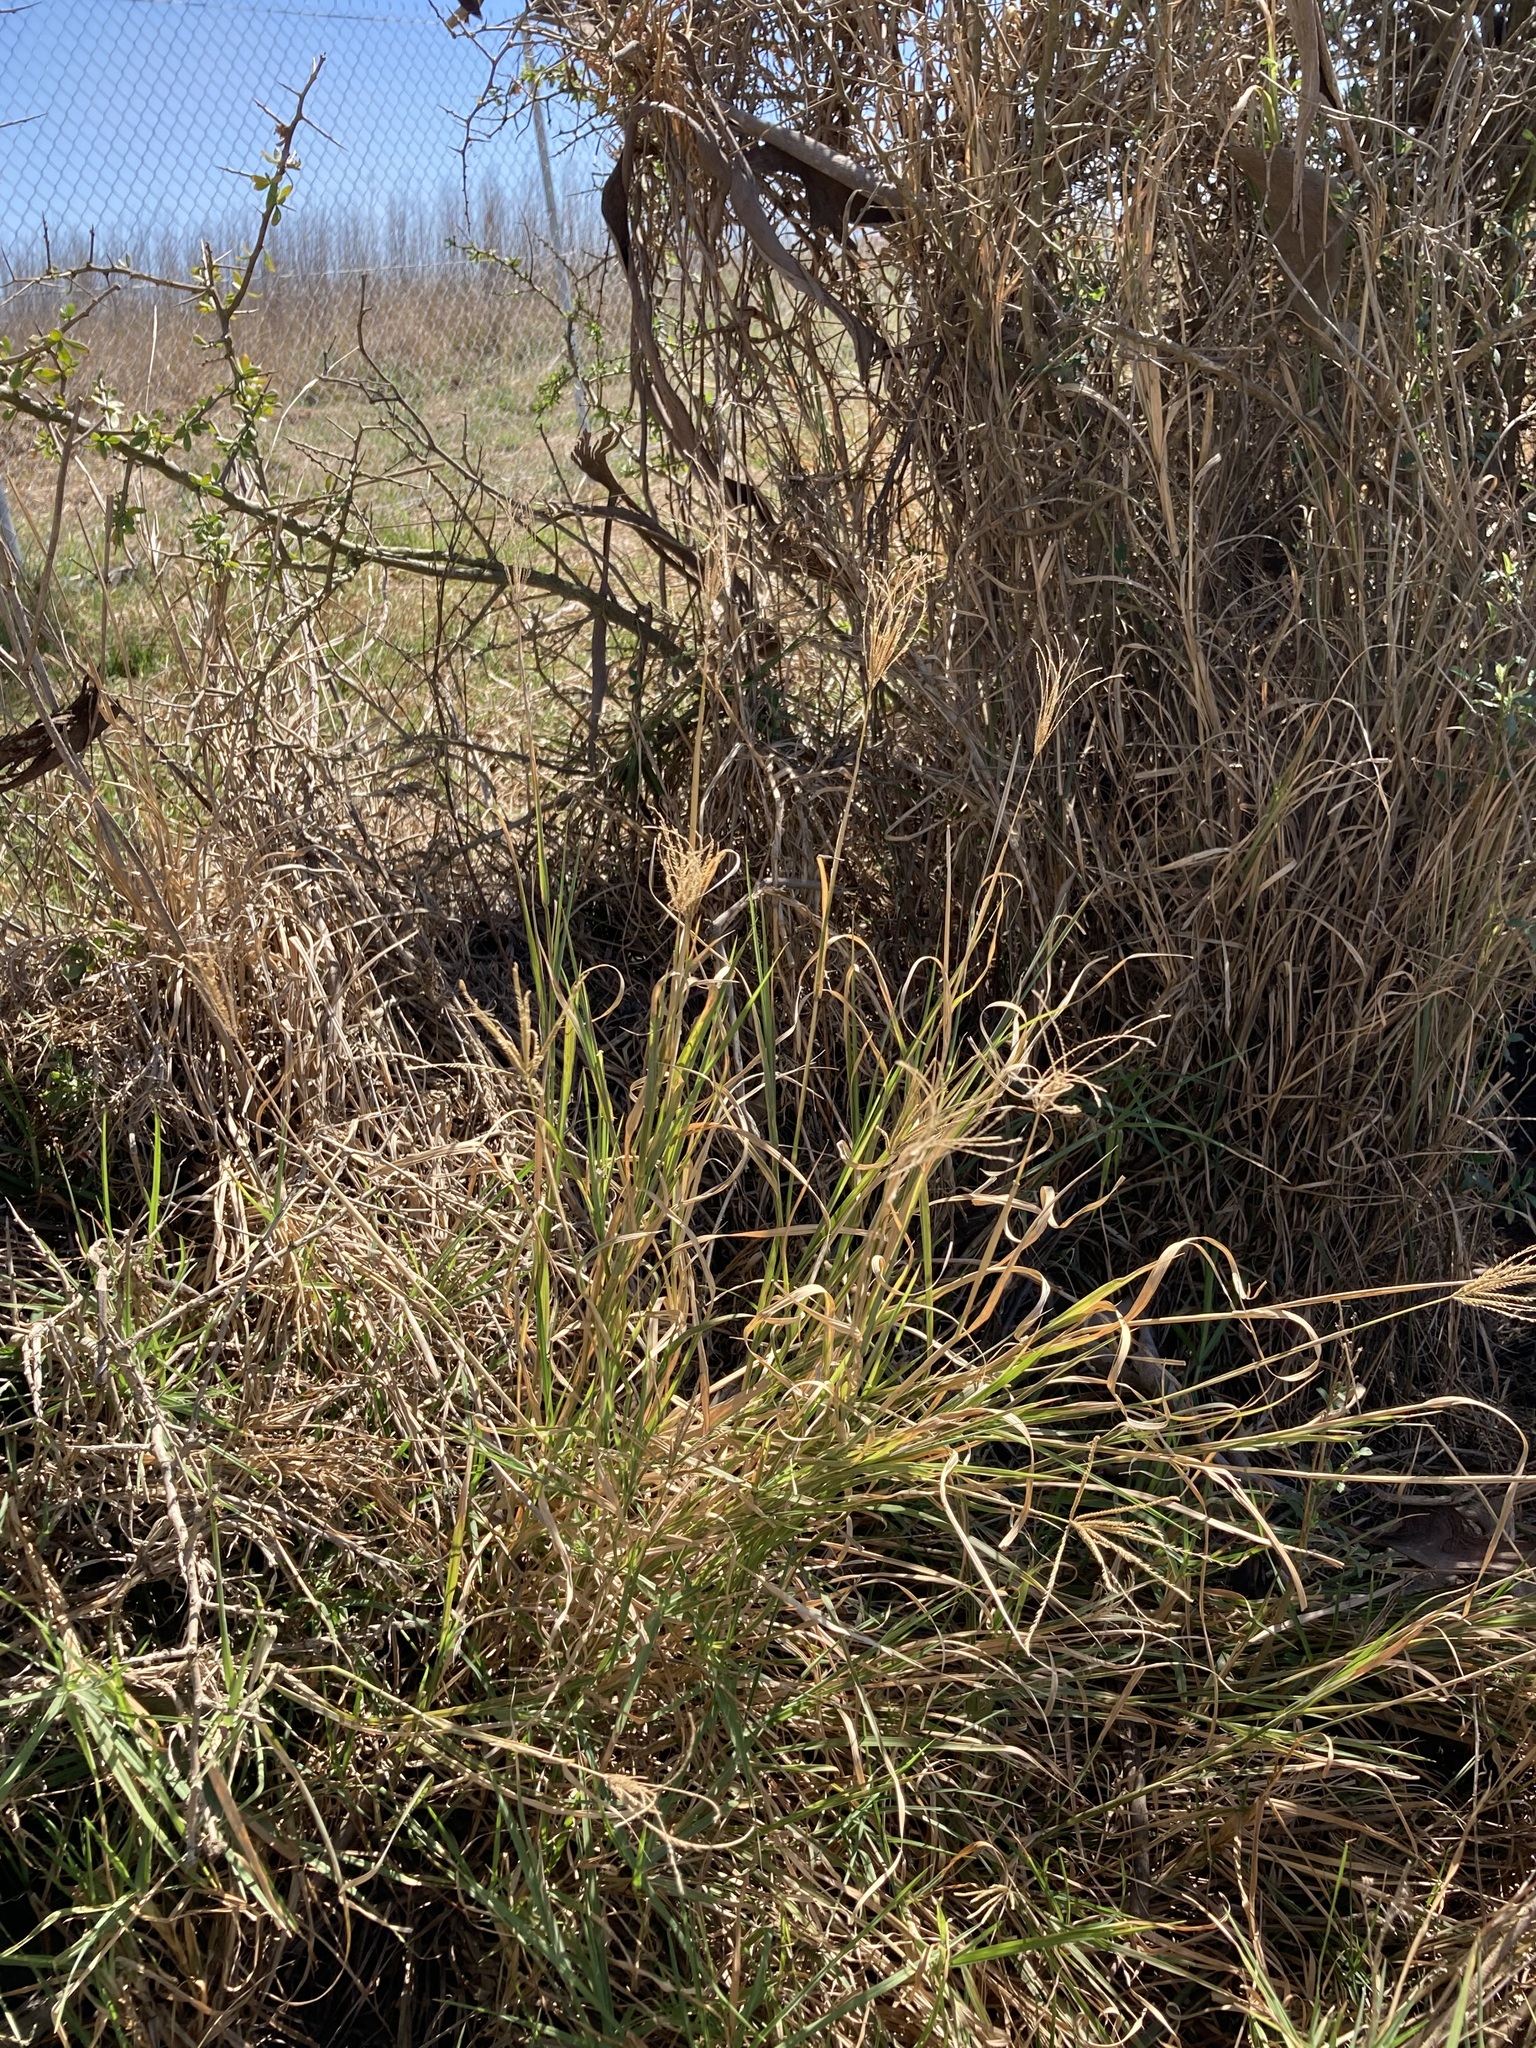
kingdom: Plantae
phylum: Tracheophyta
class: Liliopsida
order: Poales
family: Poaceae
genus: Chloris
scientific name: Chloris gayana
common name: Rhodes grass
